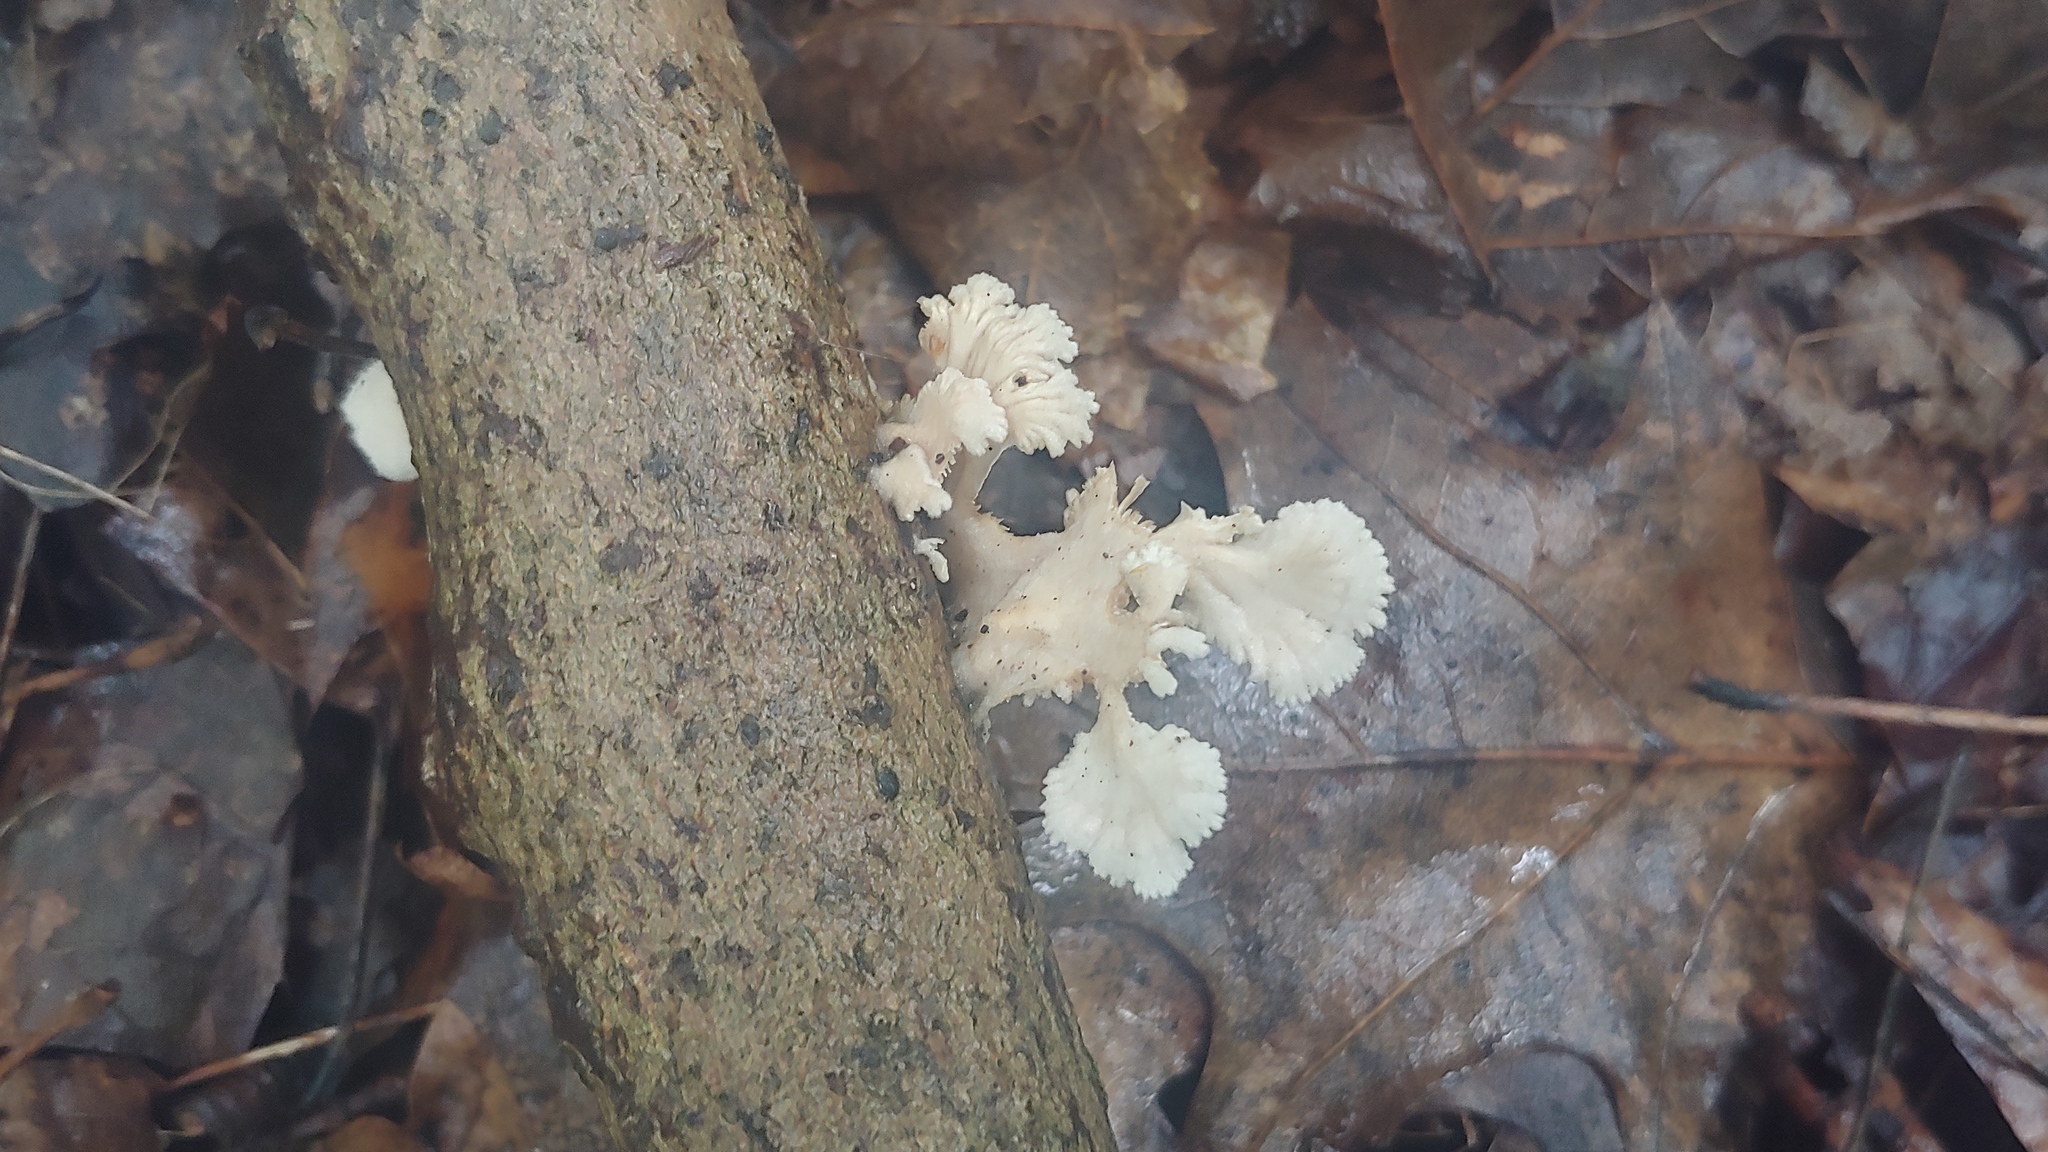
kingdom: Fungi
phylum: Basidiomycota
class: Agaricomycetes
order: Agaricales
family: Schizophyllaceae
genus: Schizophyllum
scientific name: Schizophyllum commune
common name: Common porecrust
